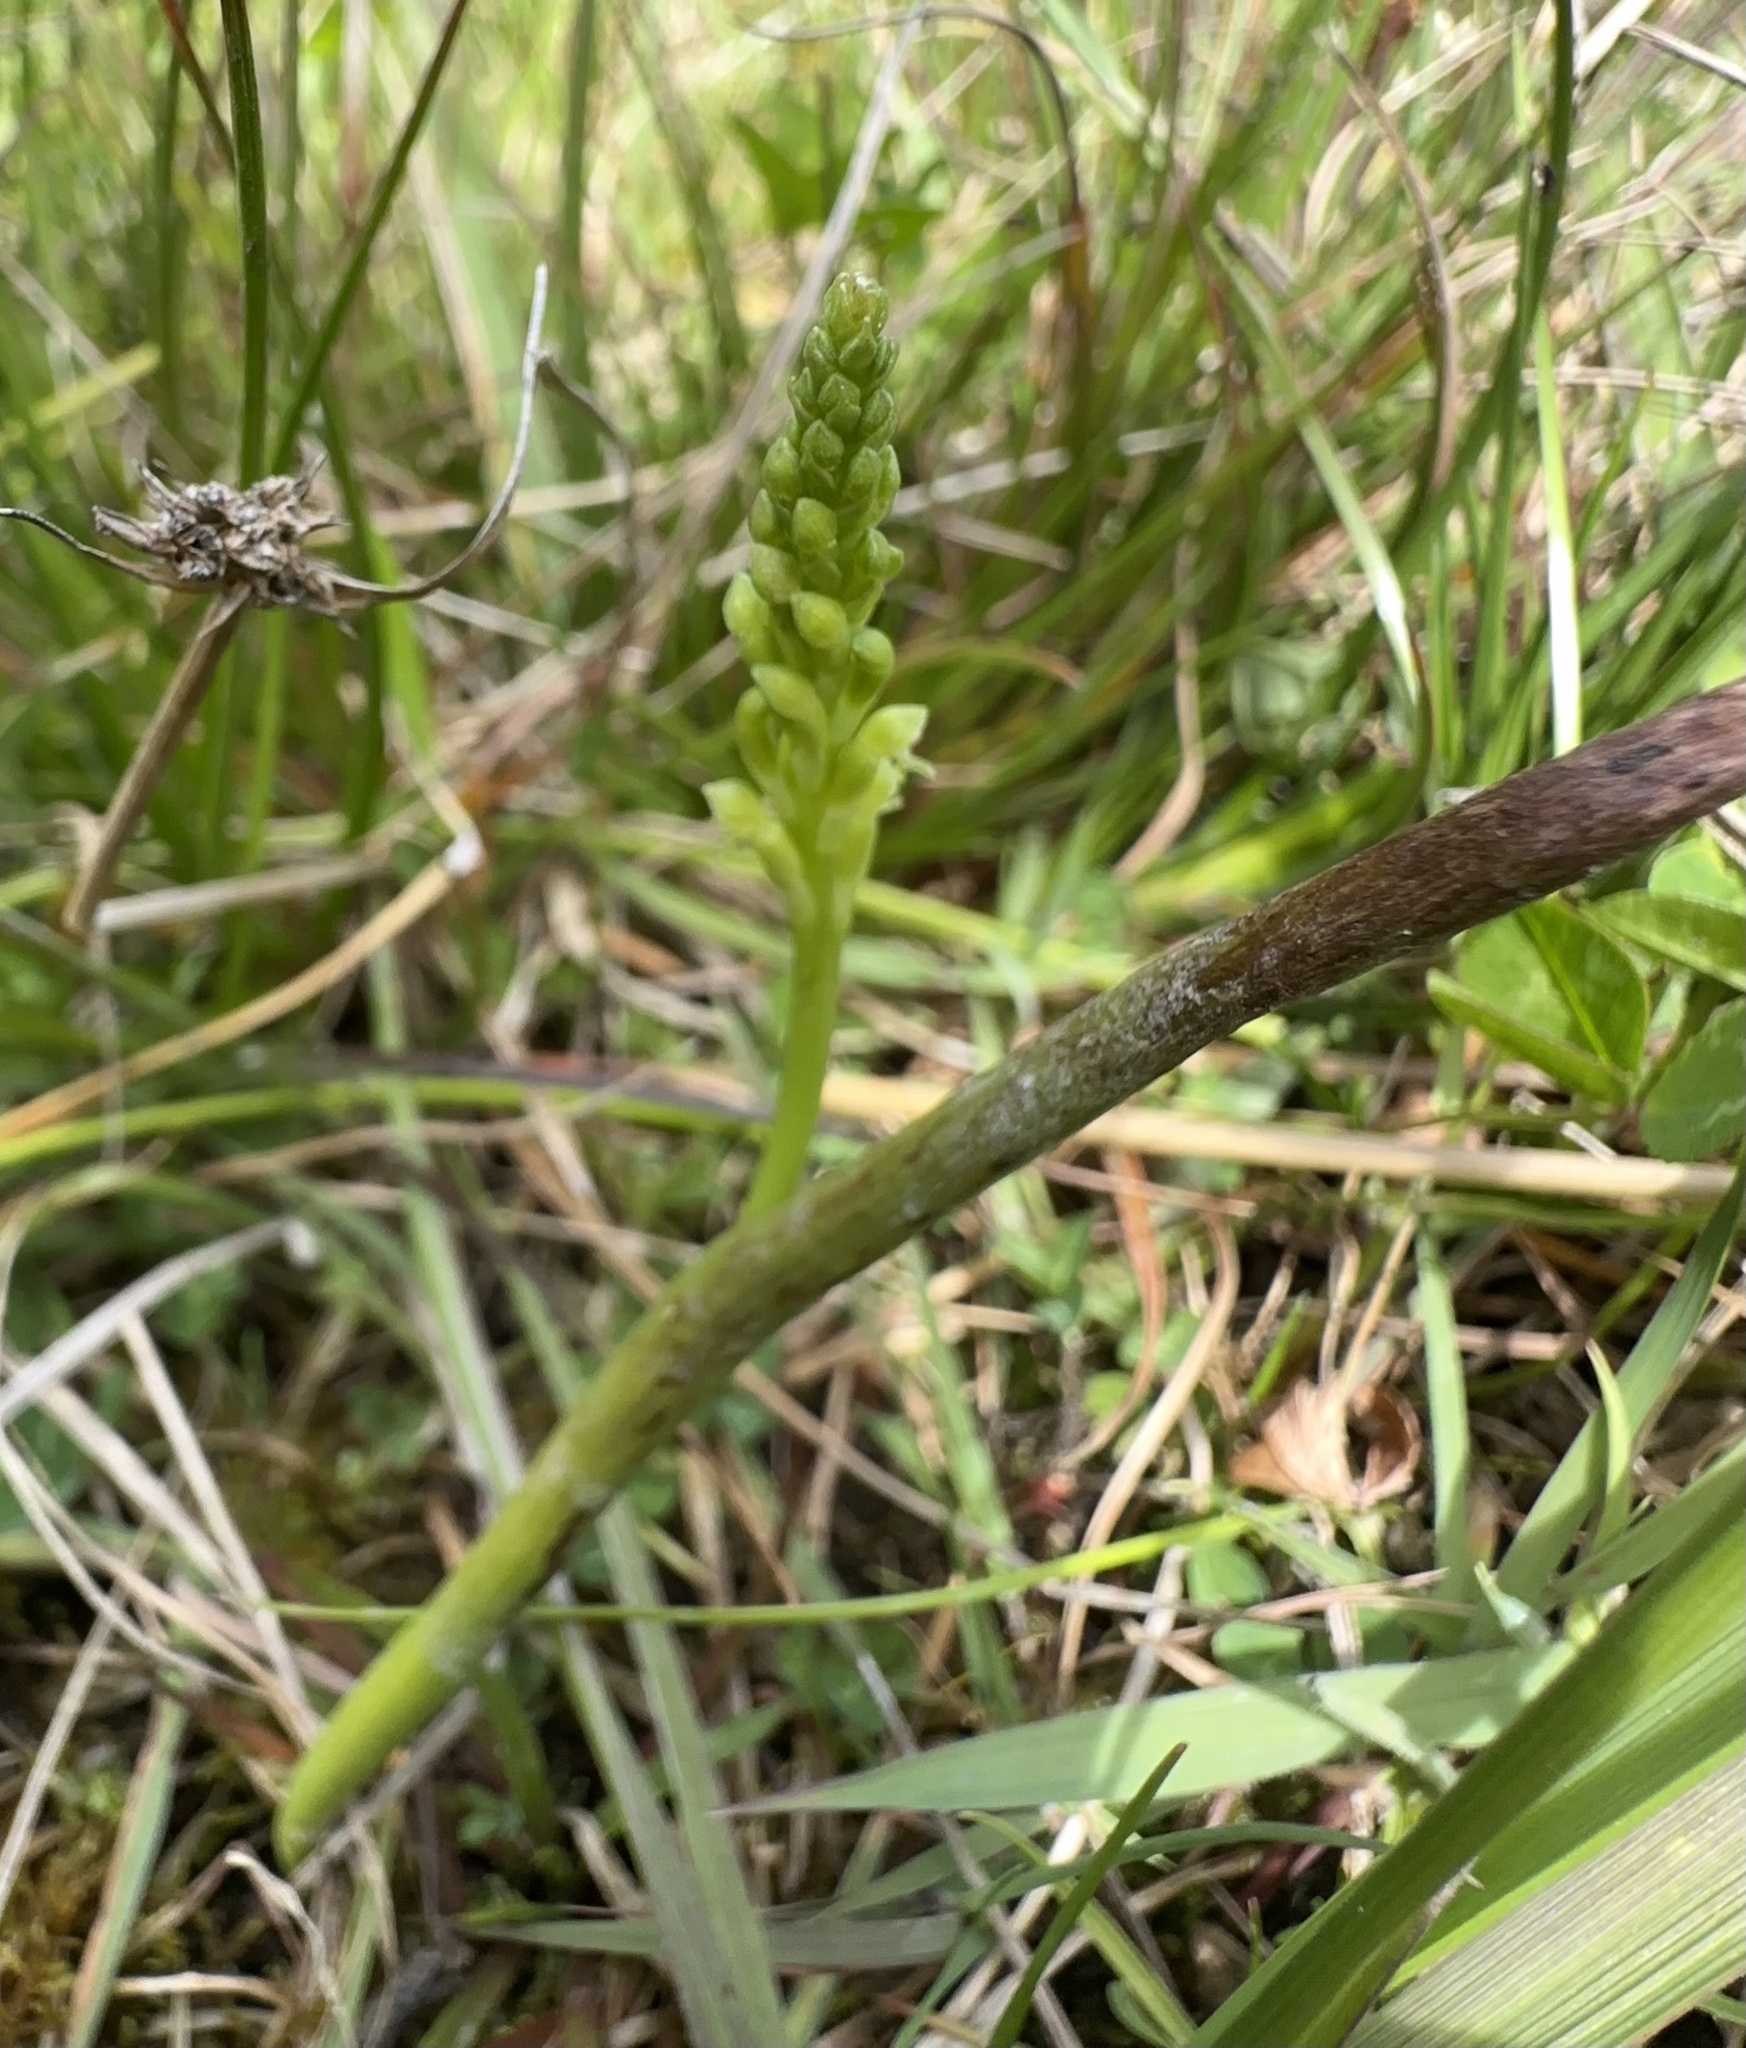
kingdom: Plantae
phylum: Tracheophyta
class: Liliopsida
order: Asparagales
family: Orchidaceae
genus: Microtis
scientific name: Microtis unifolia
